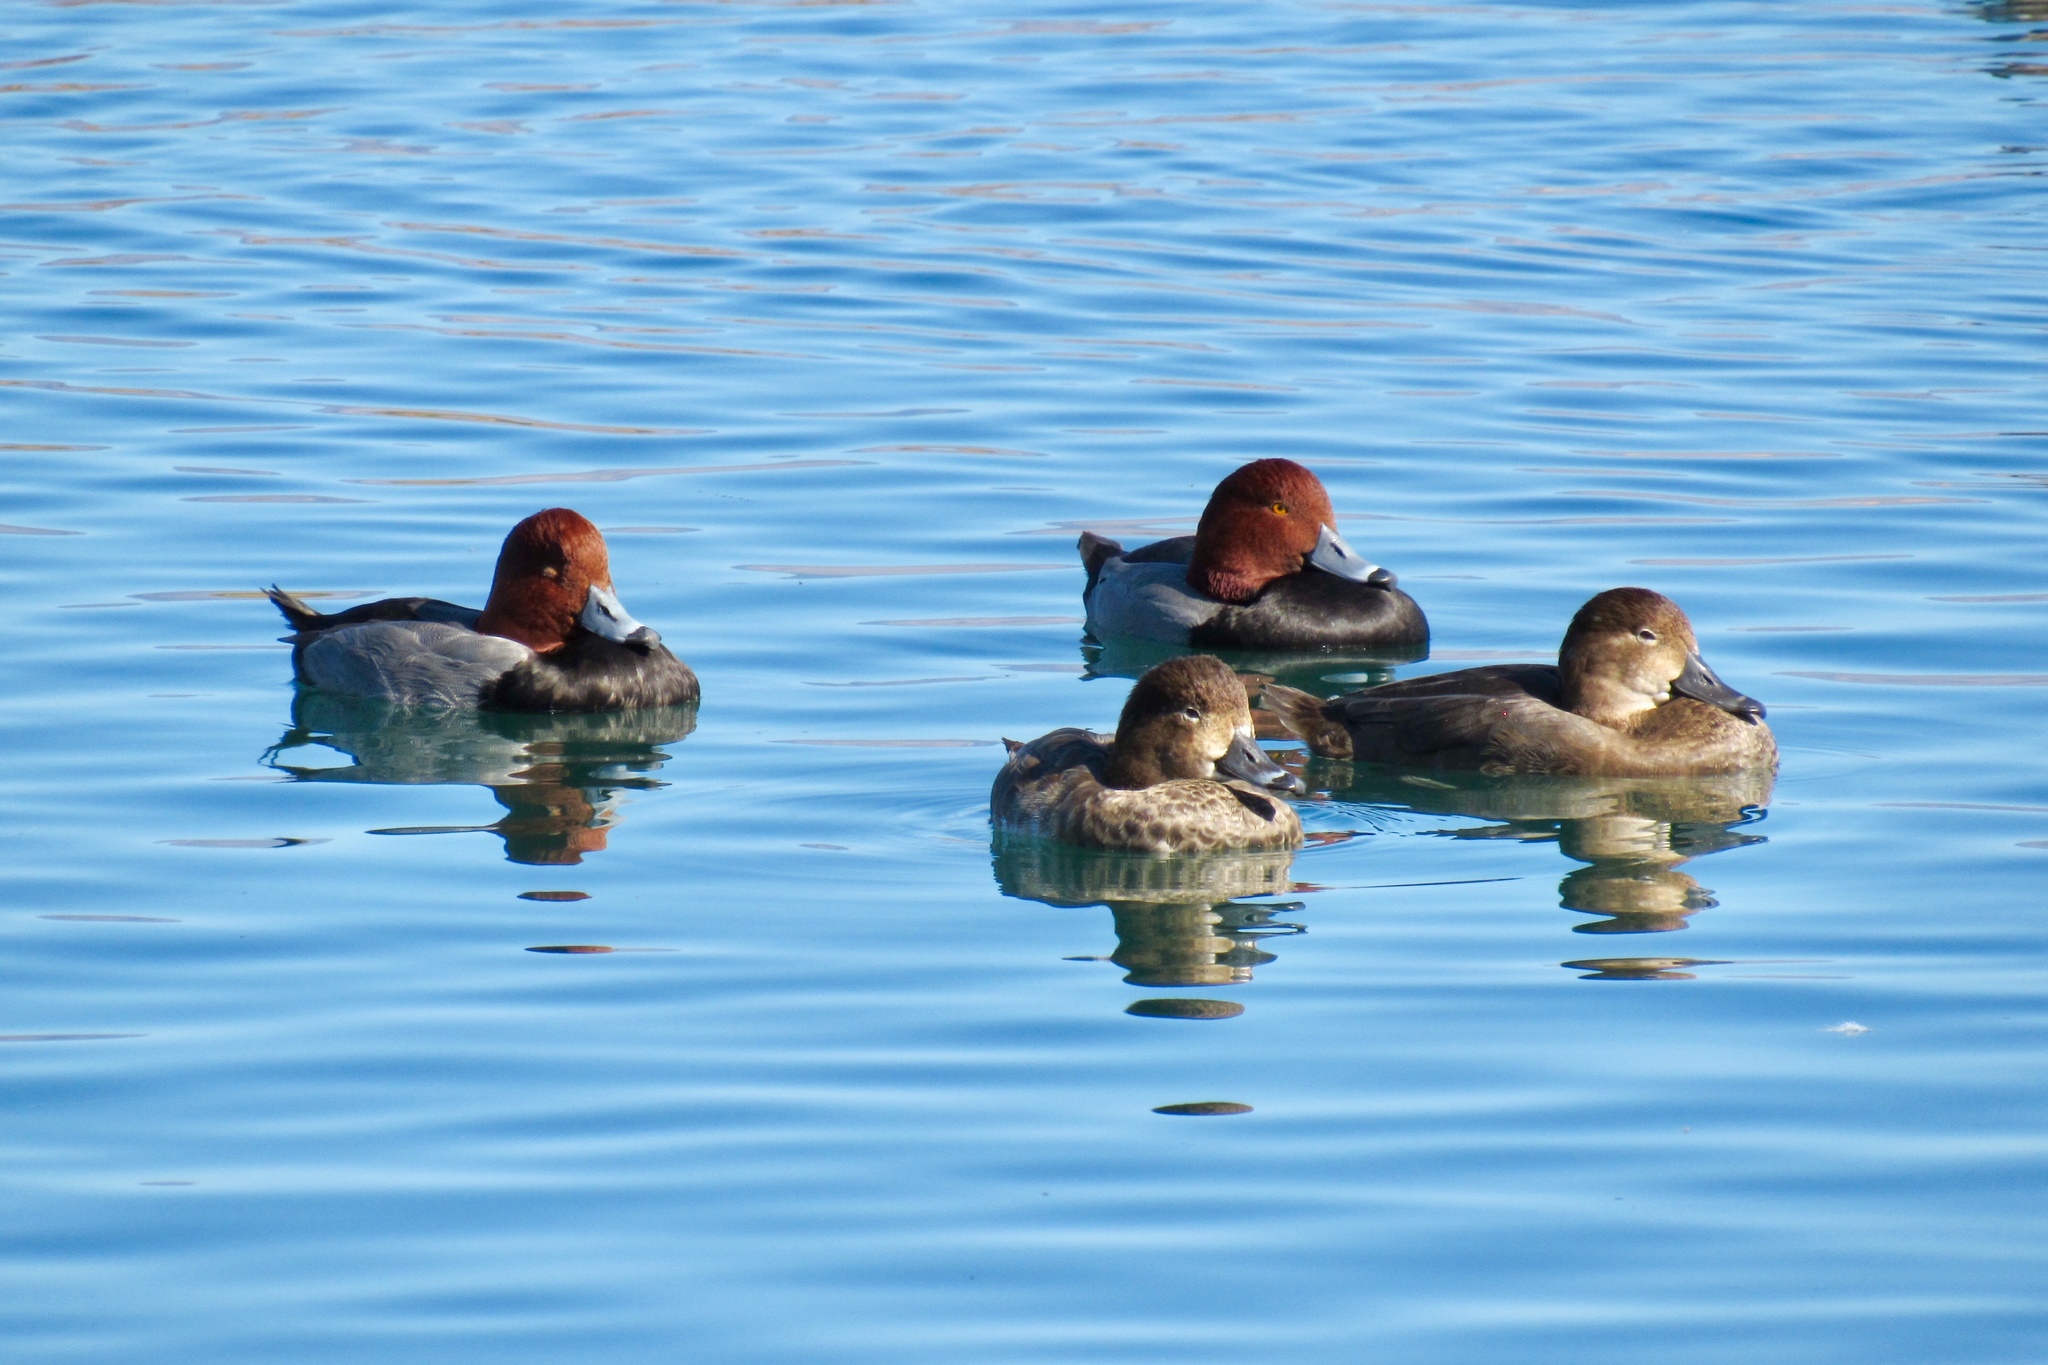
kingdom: Animalia
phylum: Chordata
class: Aves
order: Anseriformes
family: Anatidae
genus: Aythya
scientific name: Aythya americana
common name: Redhead
